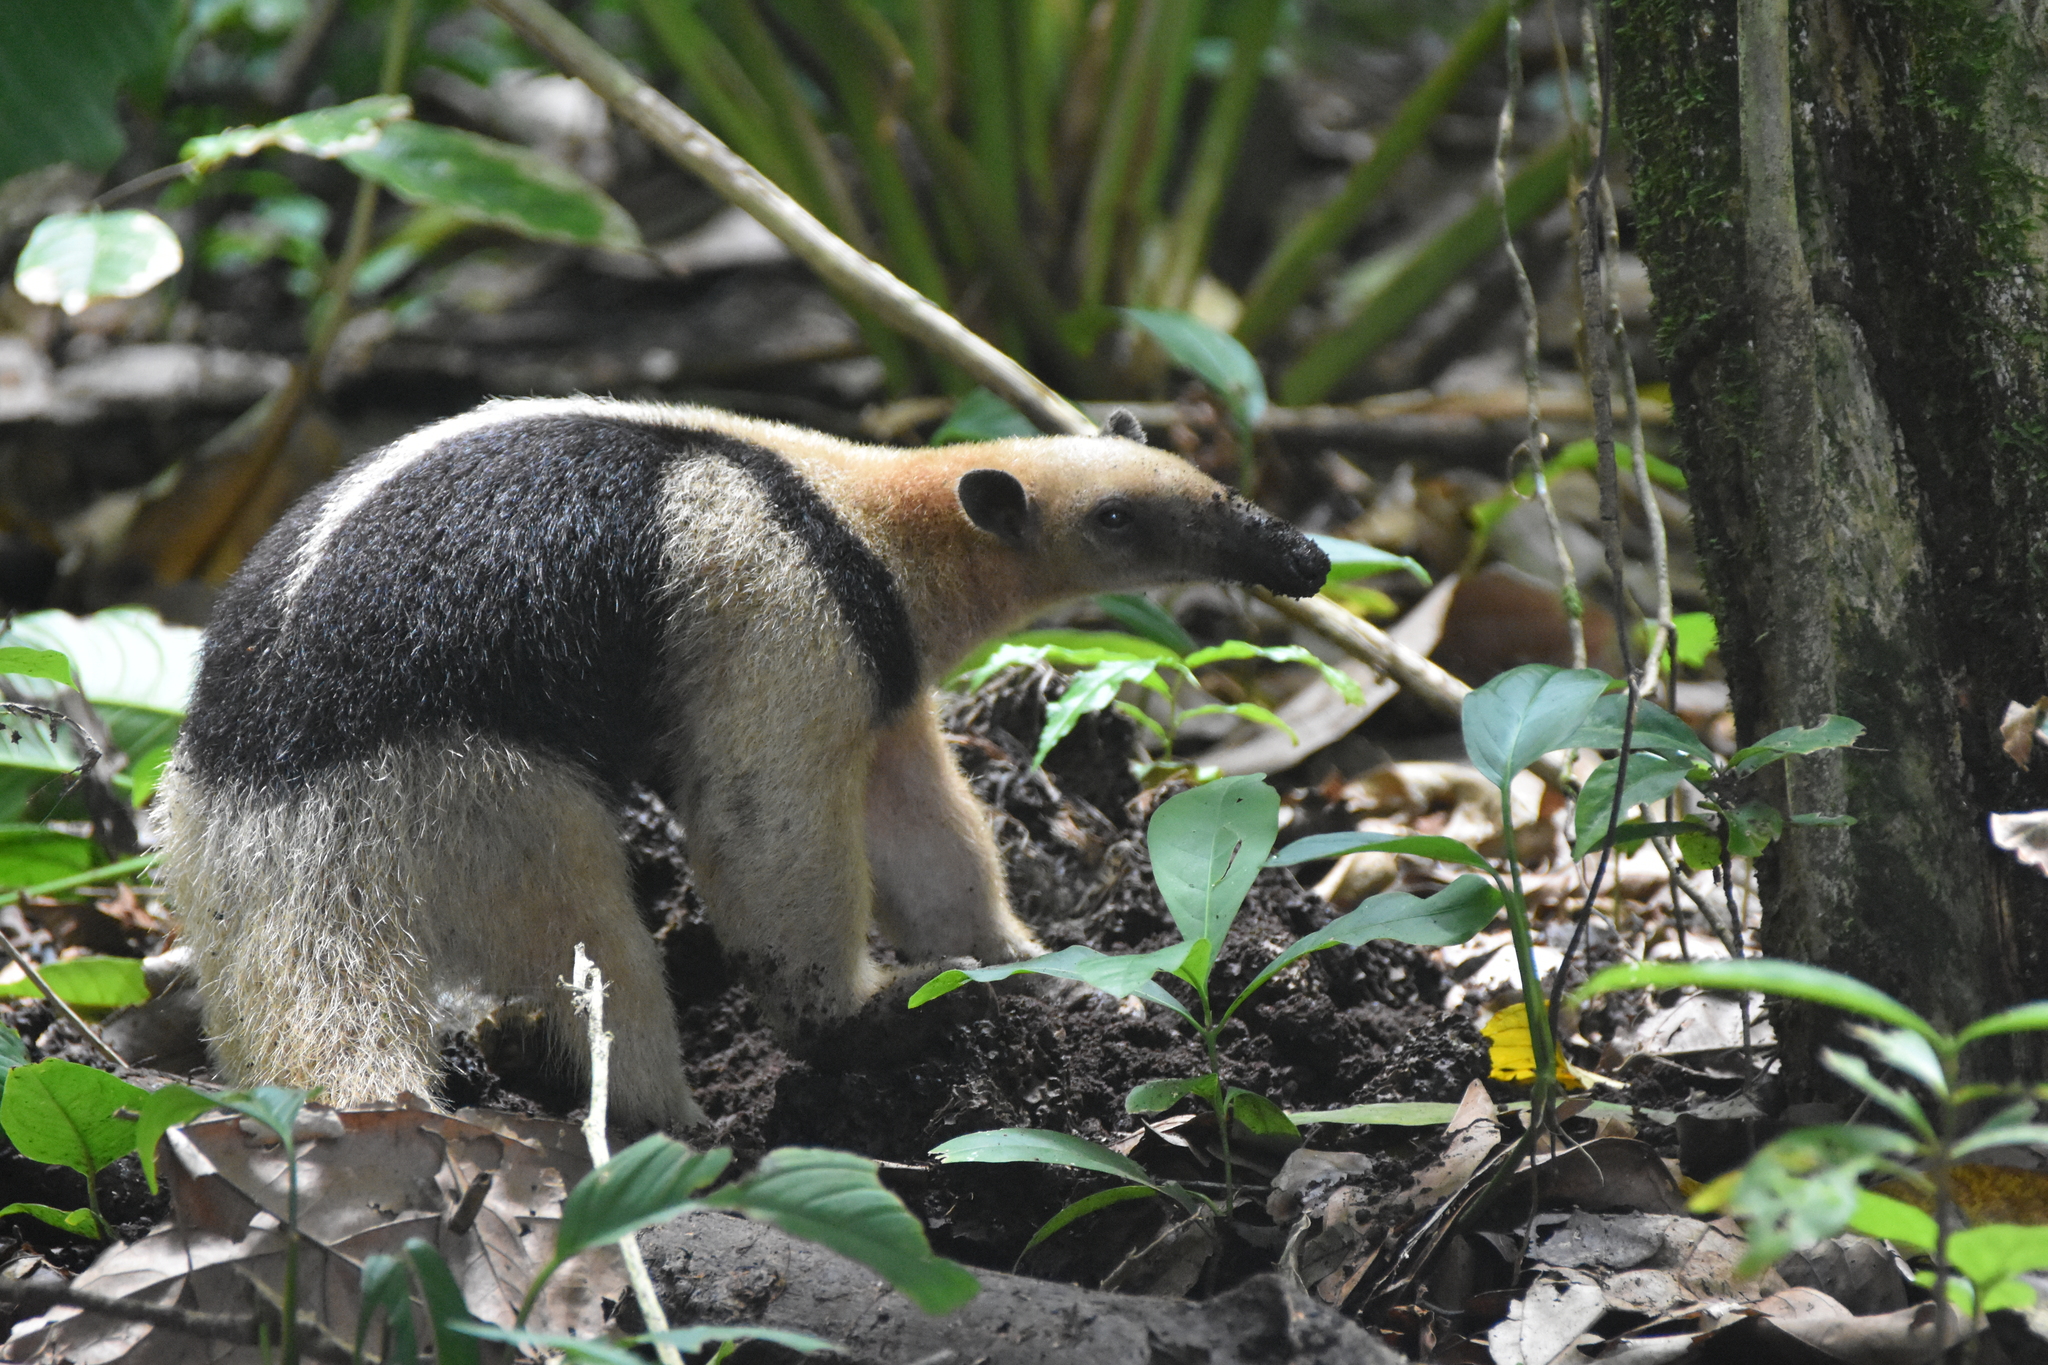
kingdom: Animalia
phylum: Chordata
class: Mammalia
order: Pilosa
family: Myrmecophagidae
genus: Tamandua
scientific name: Tamandua mexicana
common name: Northern tamandua
